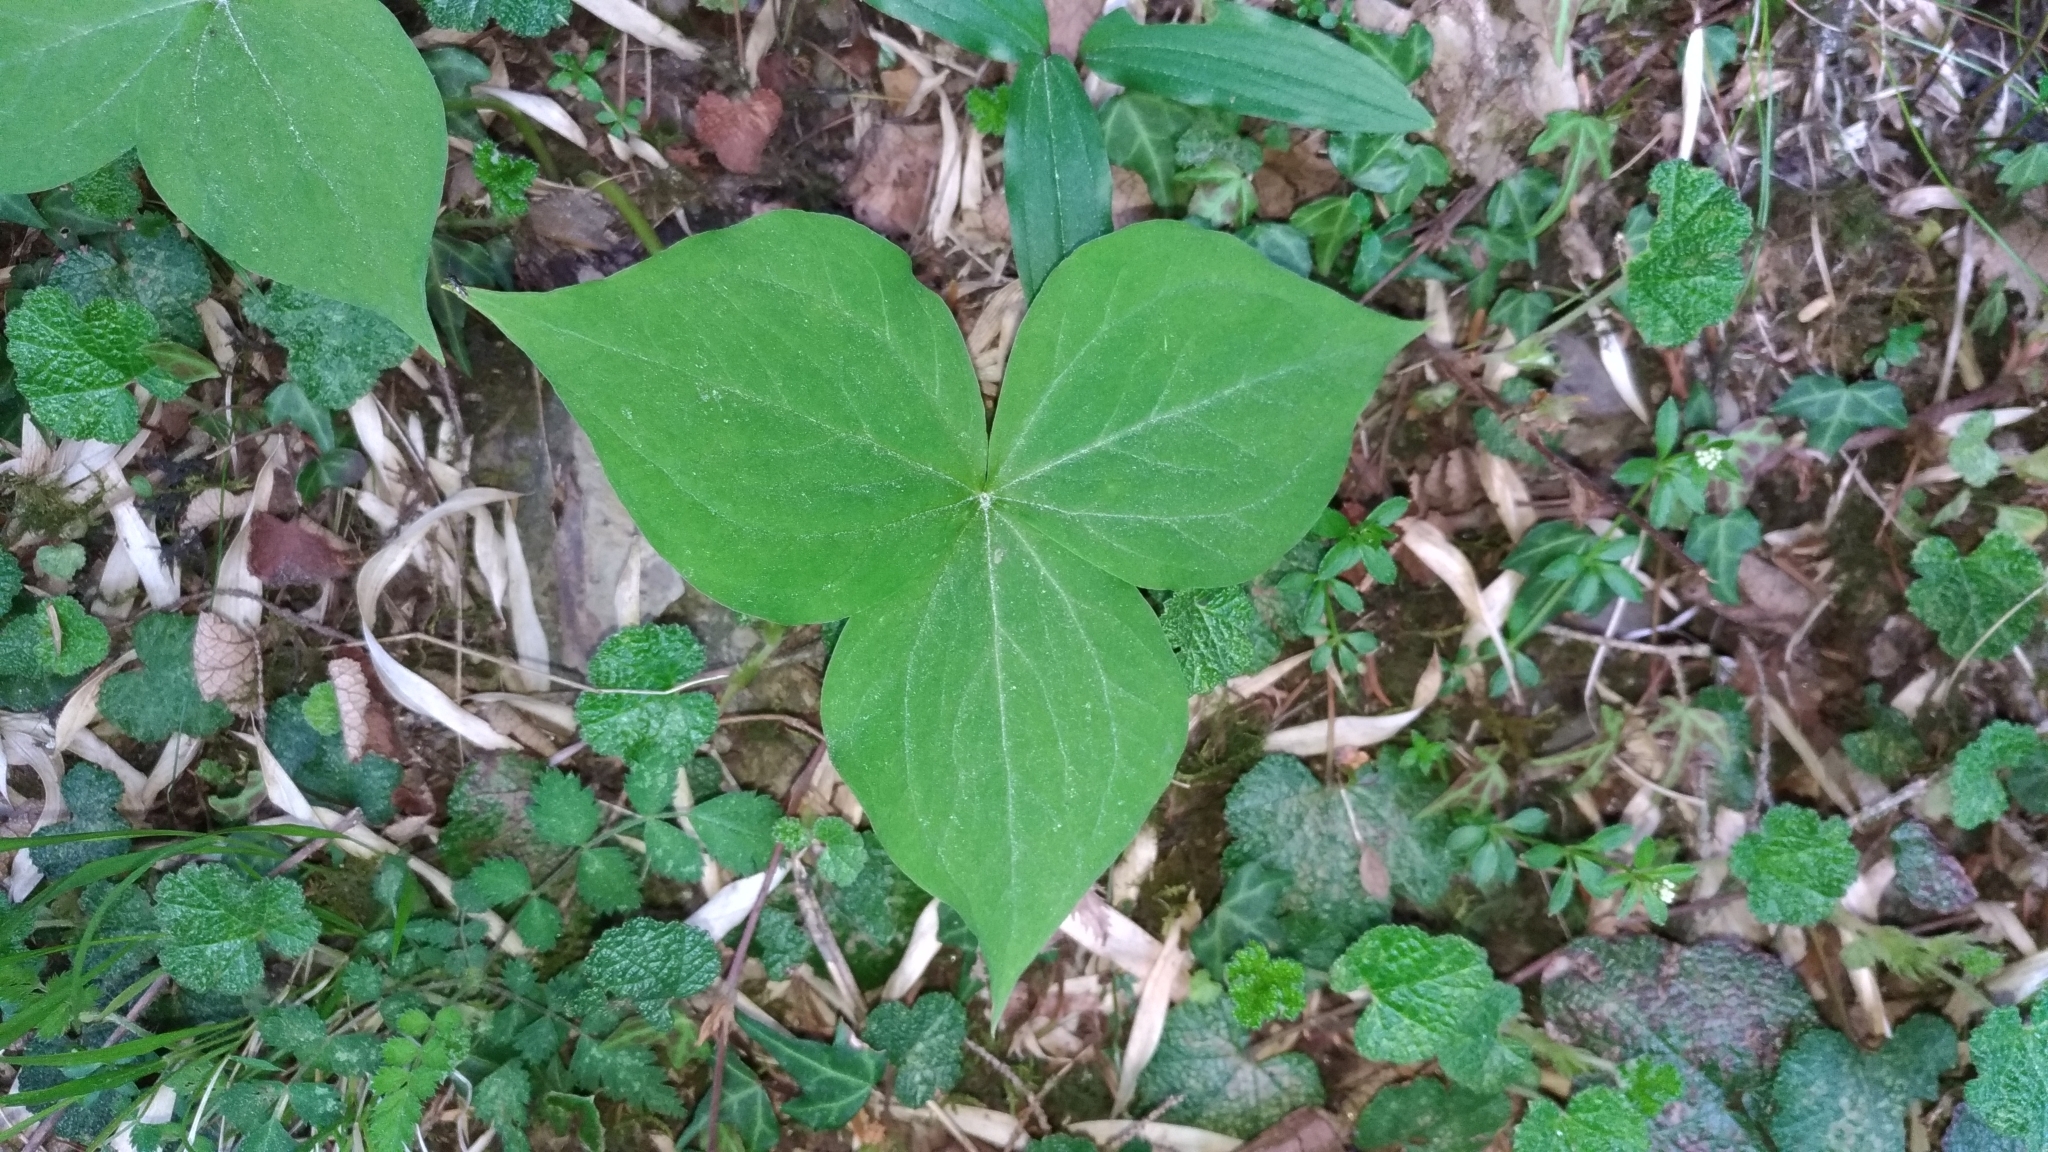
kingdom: Plantae
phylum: Tracheophyta
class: Liliopsida
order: Liliales
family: Melanthiaceae
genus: Trillium
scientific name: Trillium tschonoskii
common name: A pearl on head
